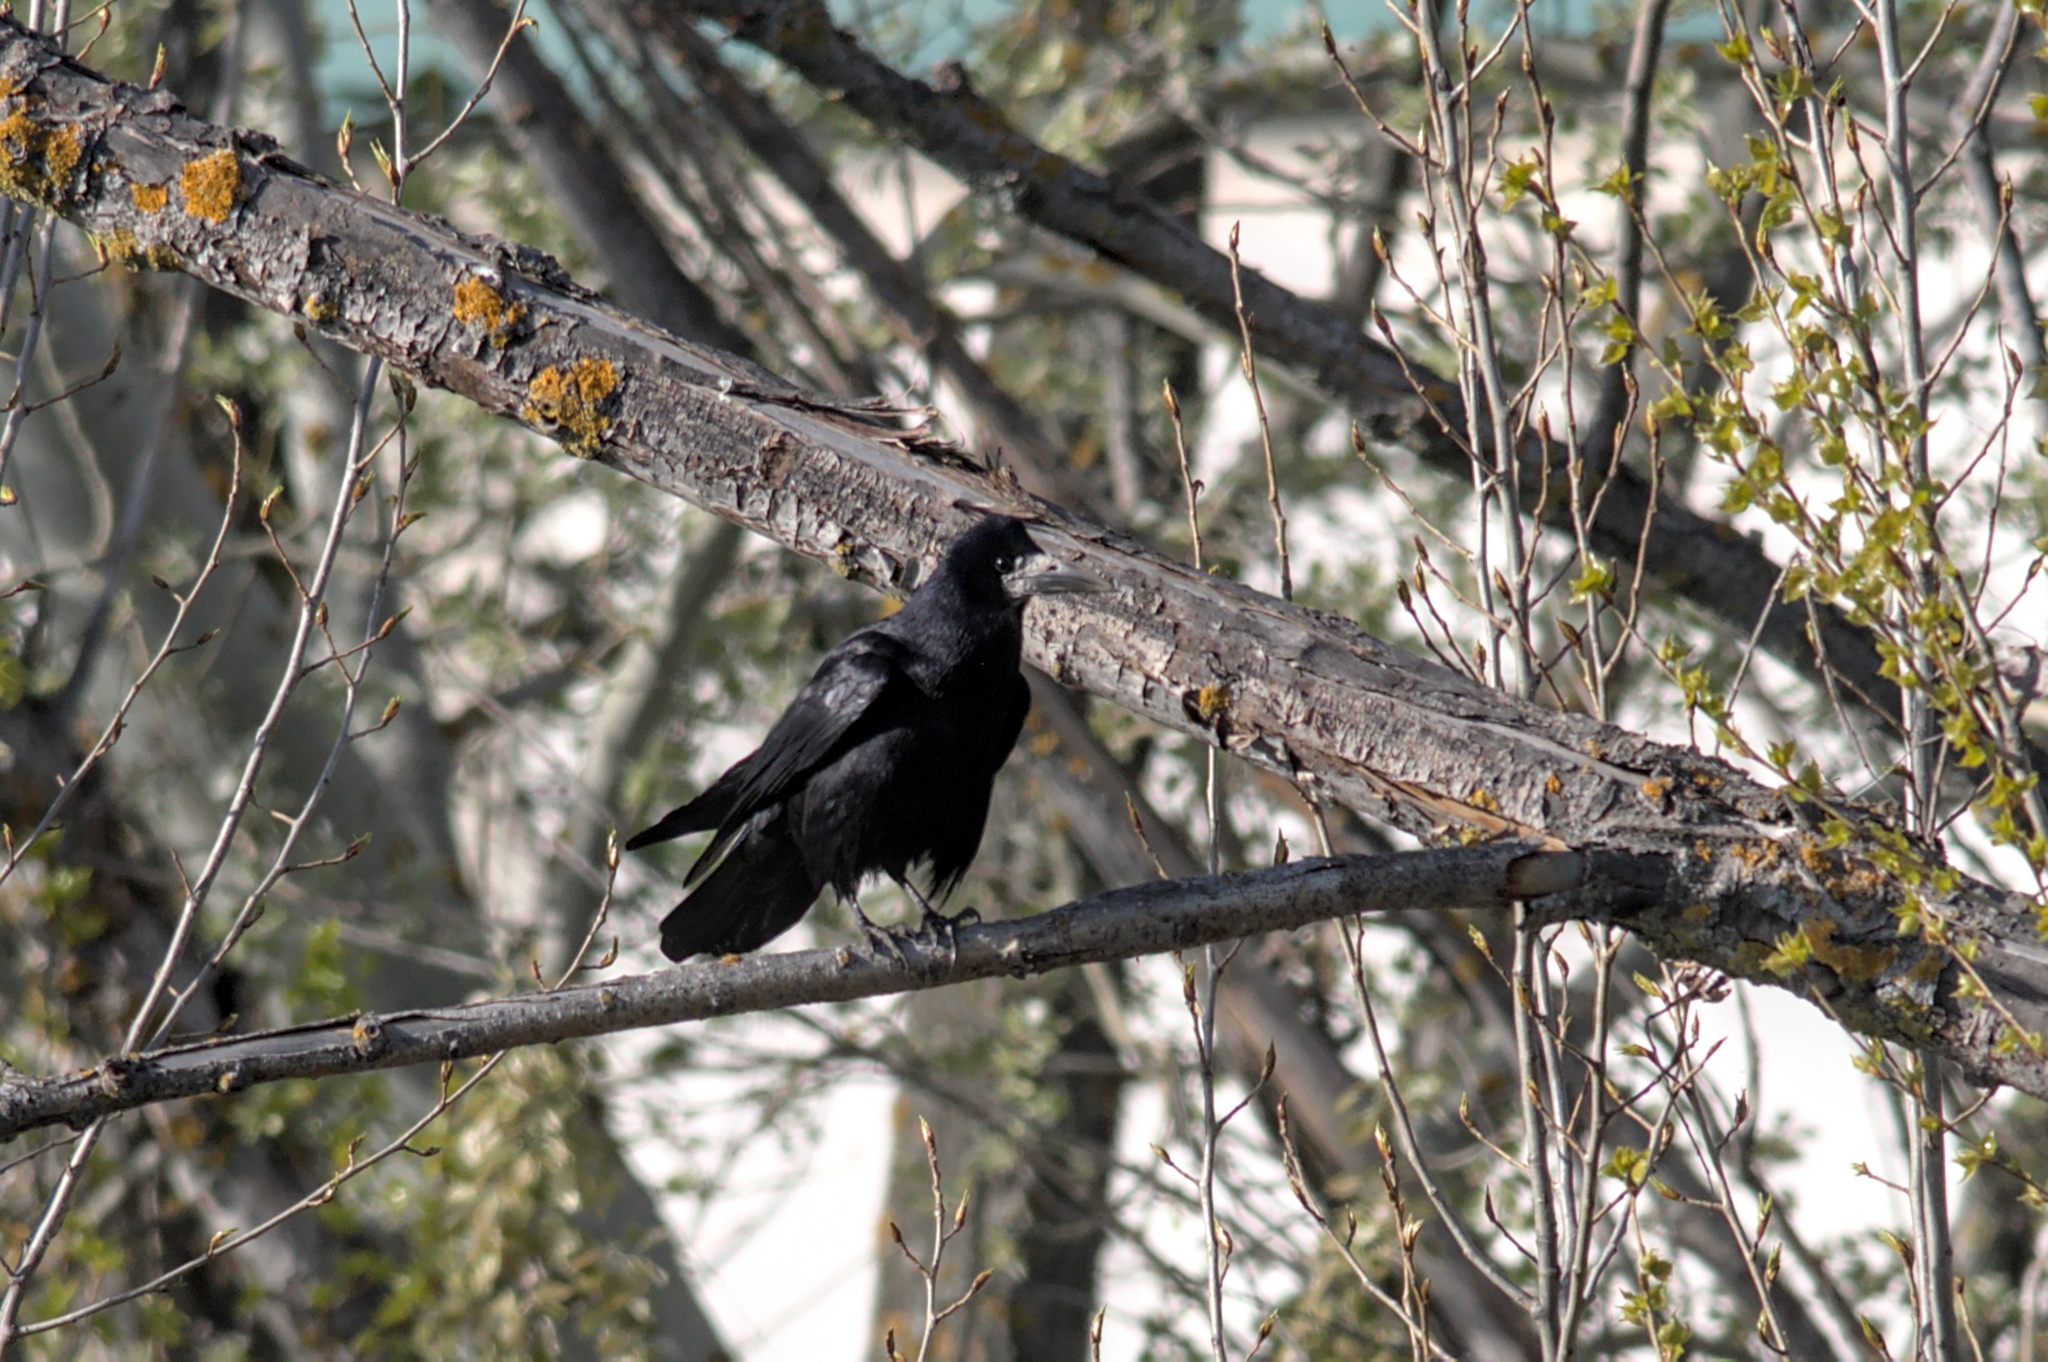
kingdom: Animalia
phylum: Chordata
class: Aves
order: Passeriformes
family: Corvidae
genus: Corvus
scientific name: Corvus frugilegus
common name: Rook
